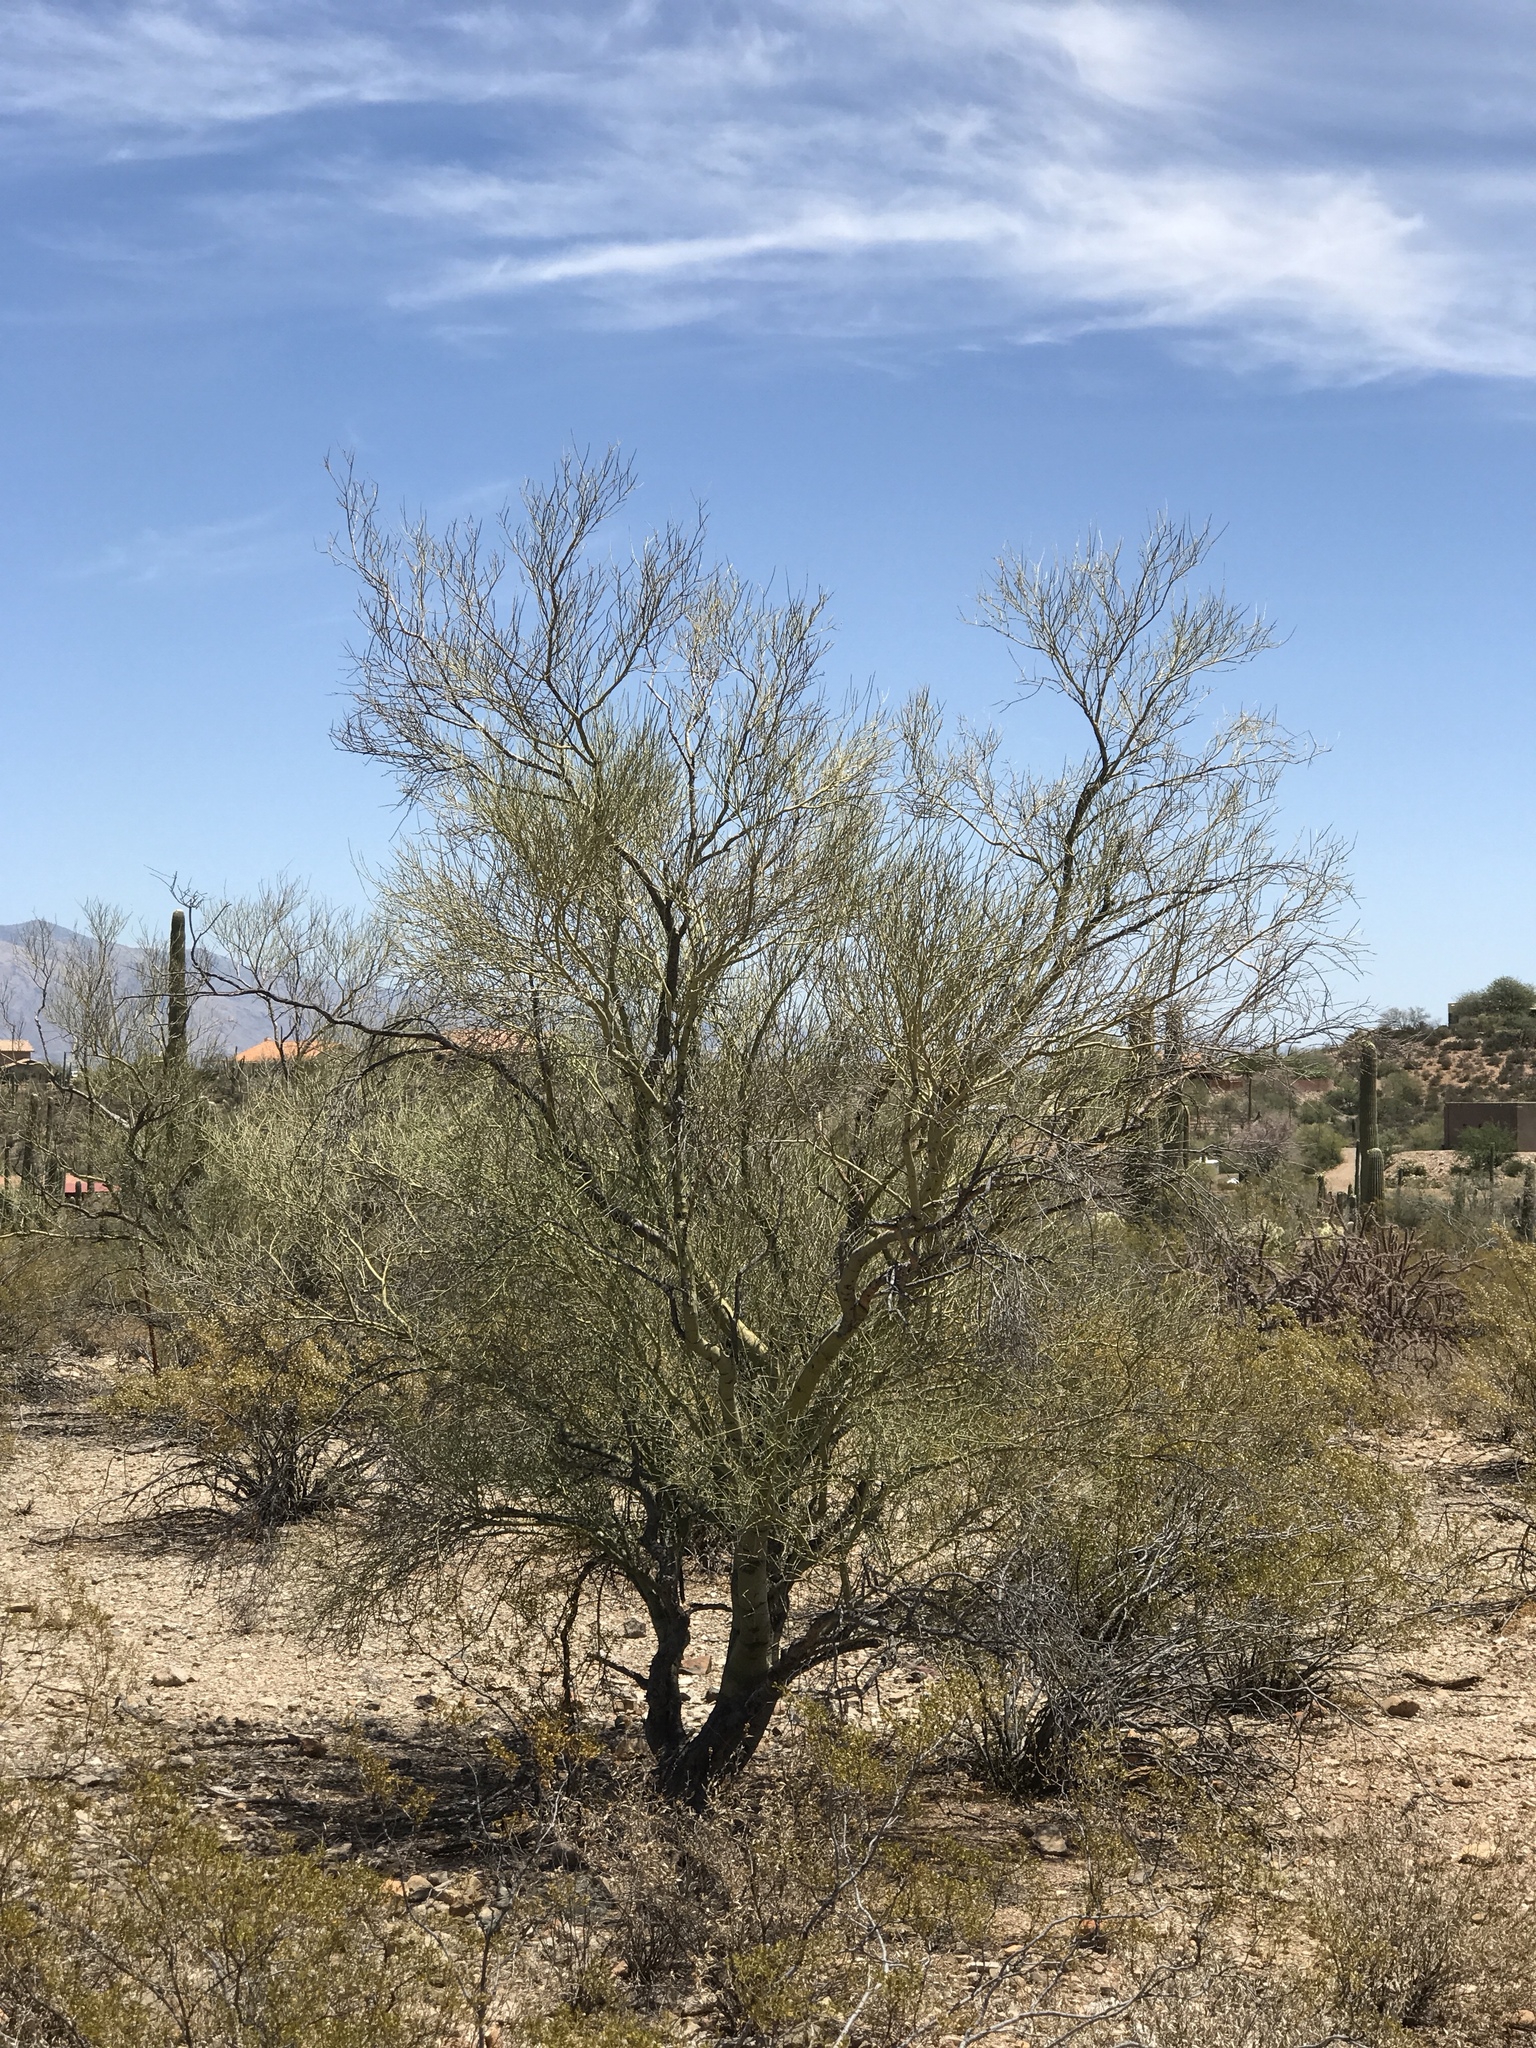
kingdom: Plantae
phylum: Tracheophyta
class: Magnoliopsida
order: Fabales
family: Fabaceae
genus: Parkinsonia
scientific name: Parkinsonia microphylla
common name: Yellow paloverde
